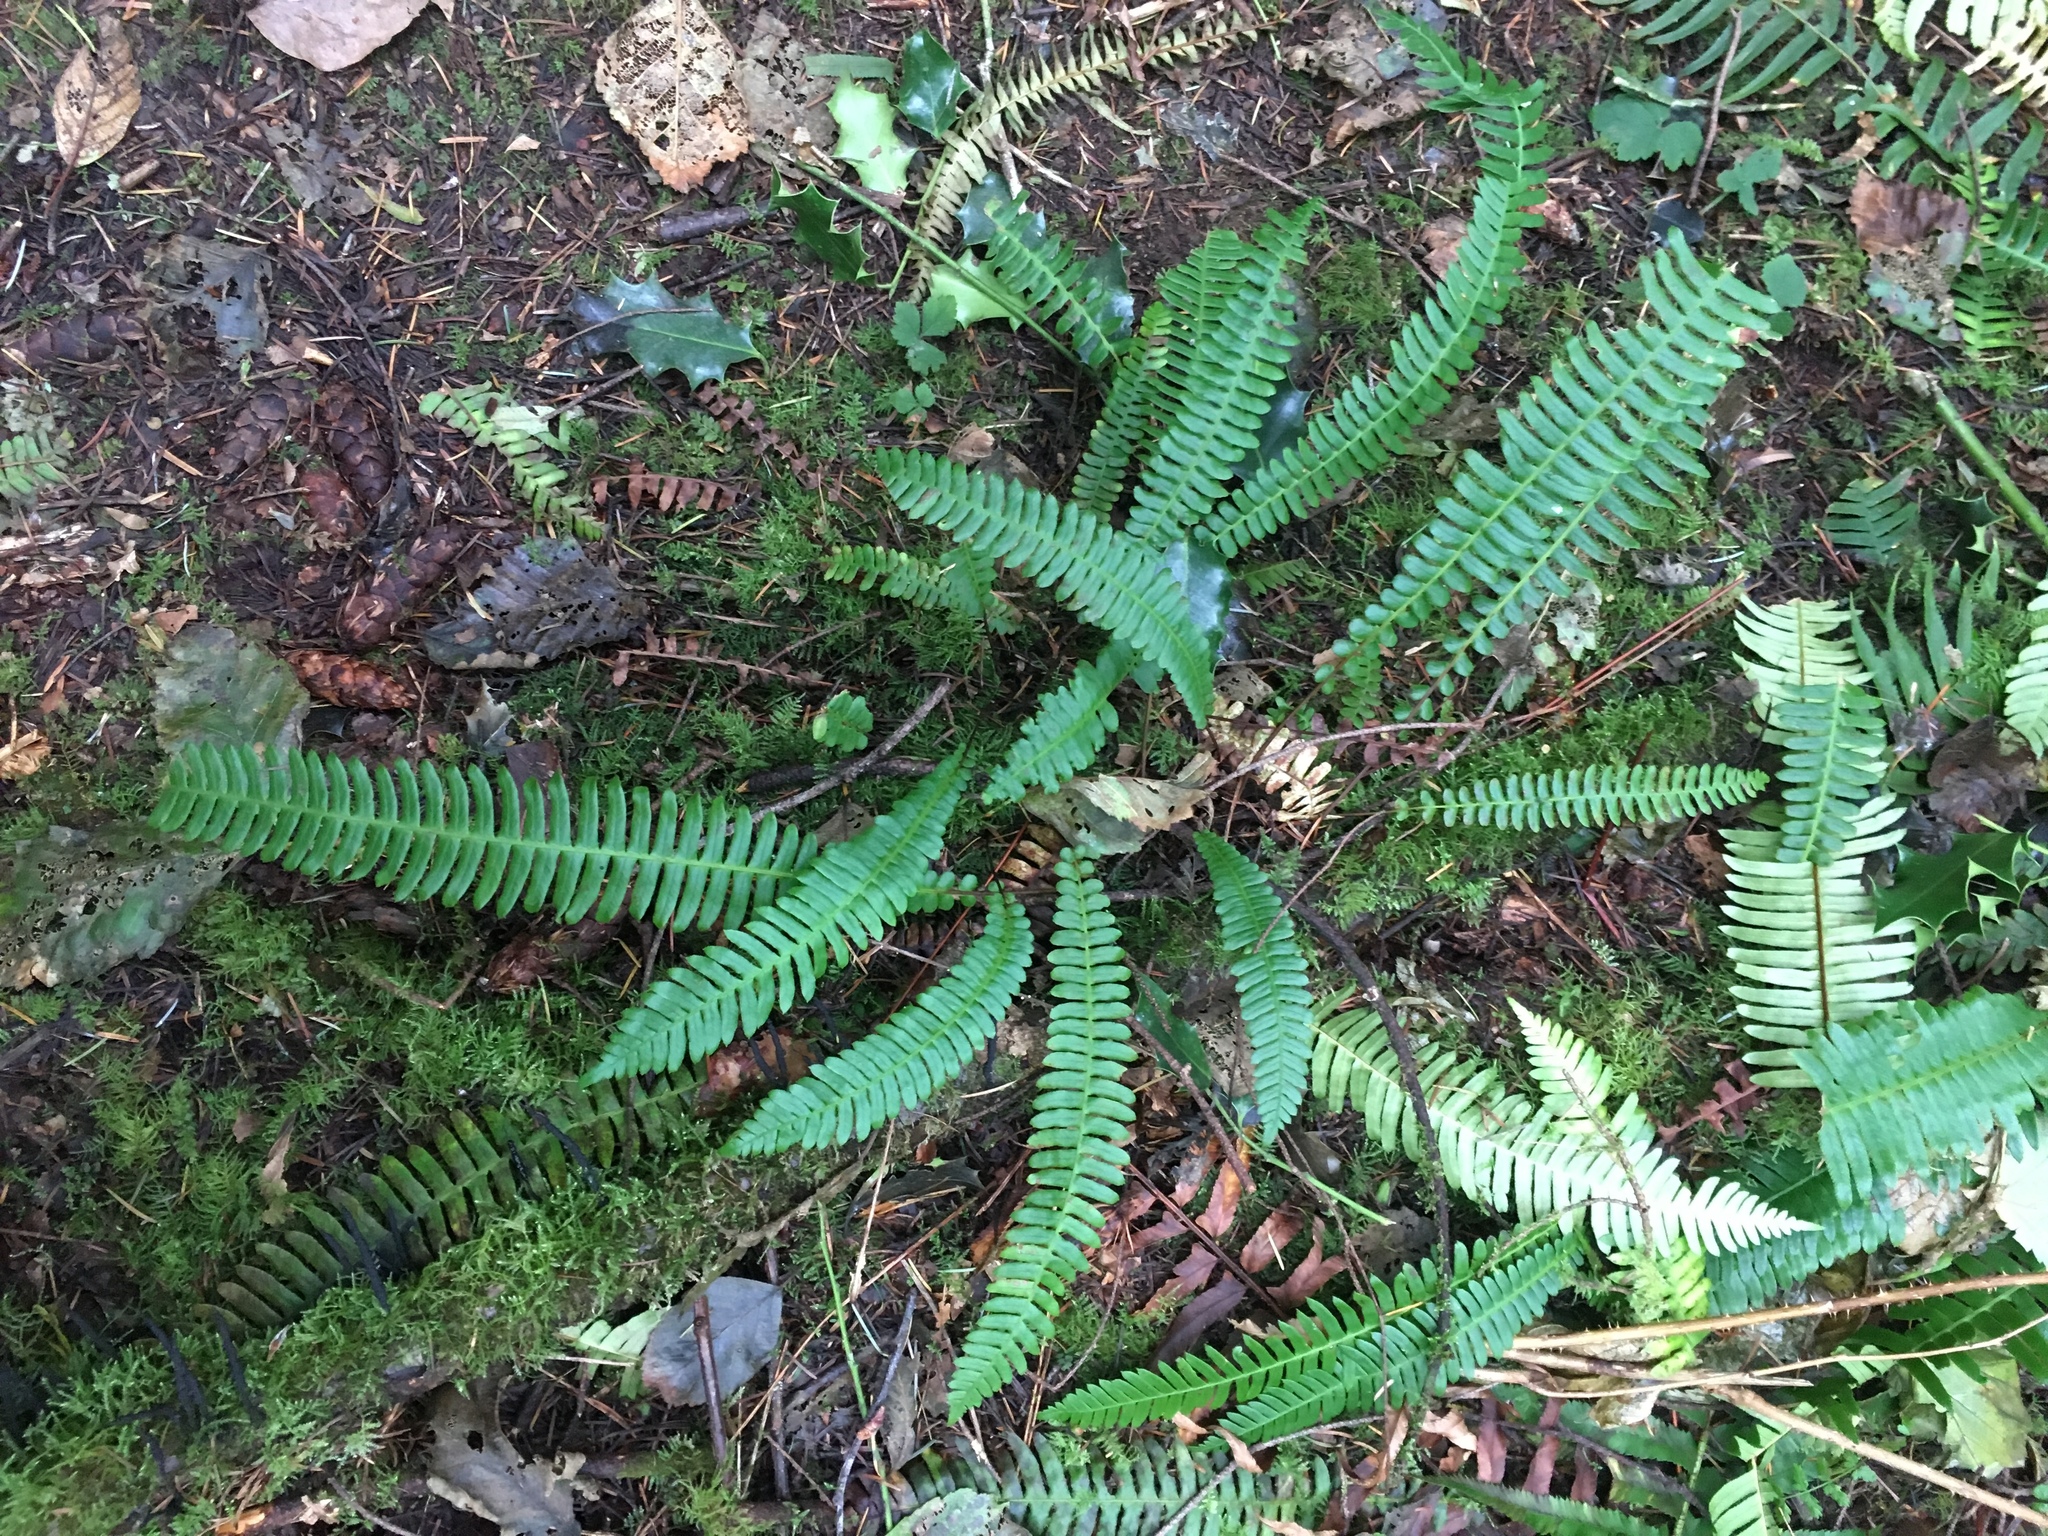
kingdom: Plantae
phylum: Tracheophyta
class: Polypodiopsida
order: Polypodiales
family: Blechnaceae
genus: Struthiopteris
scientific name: Struthiopteris spicant
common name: Deer fern
